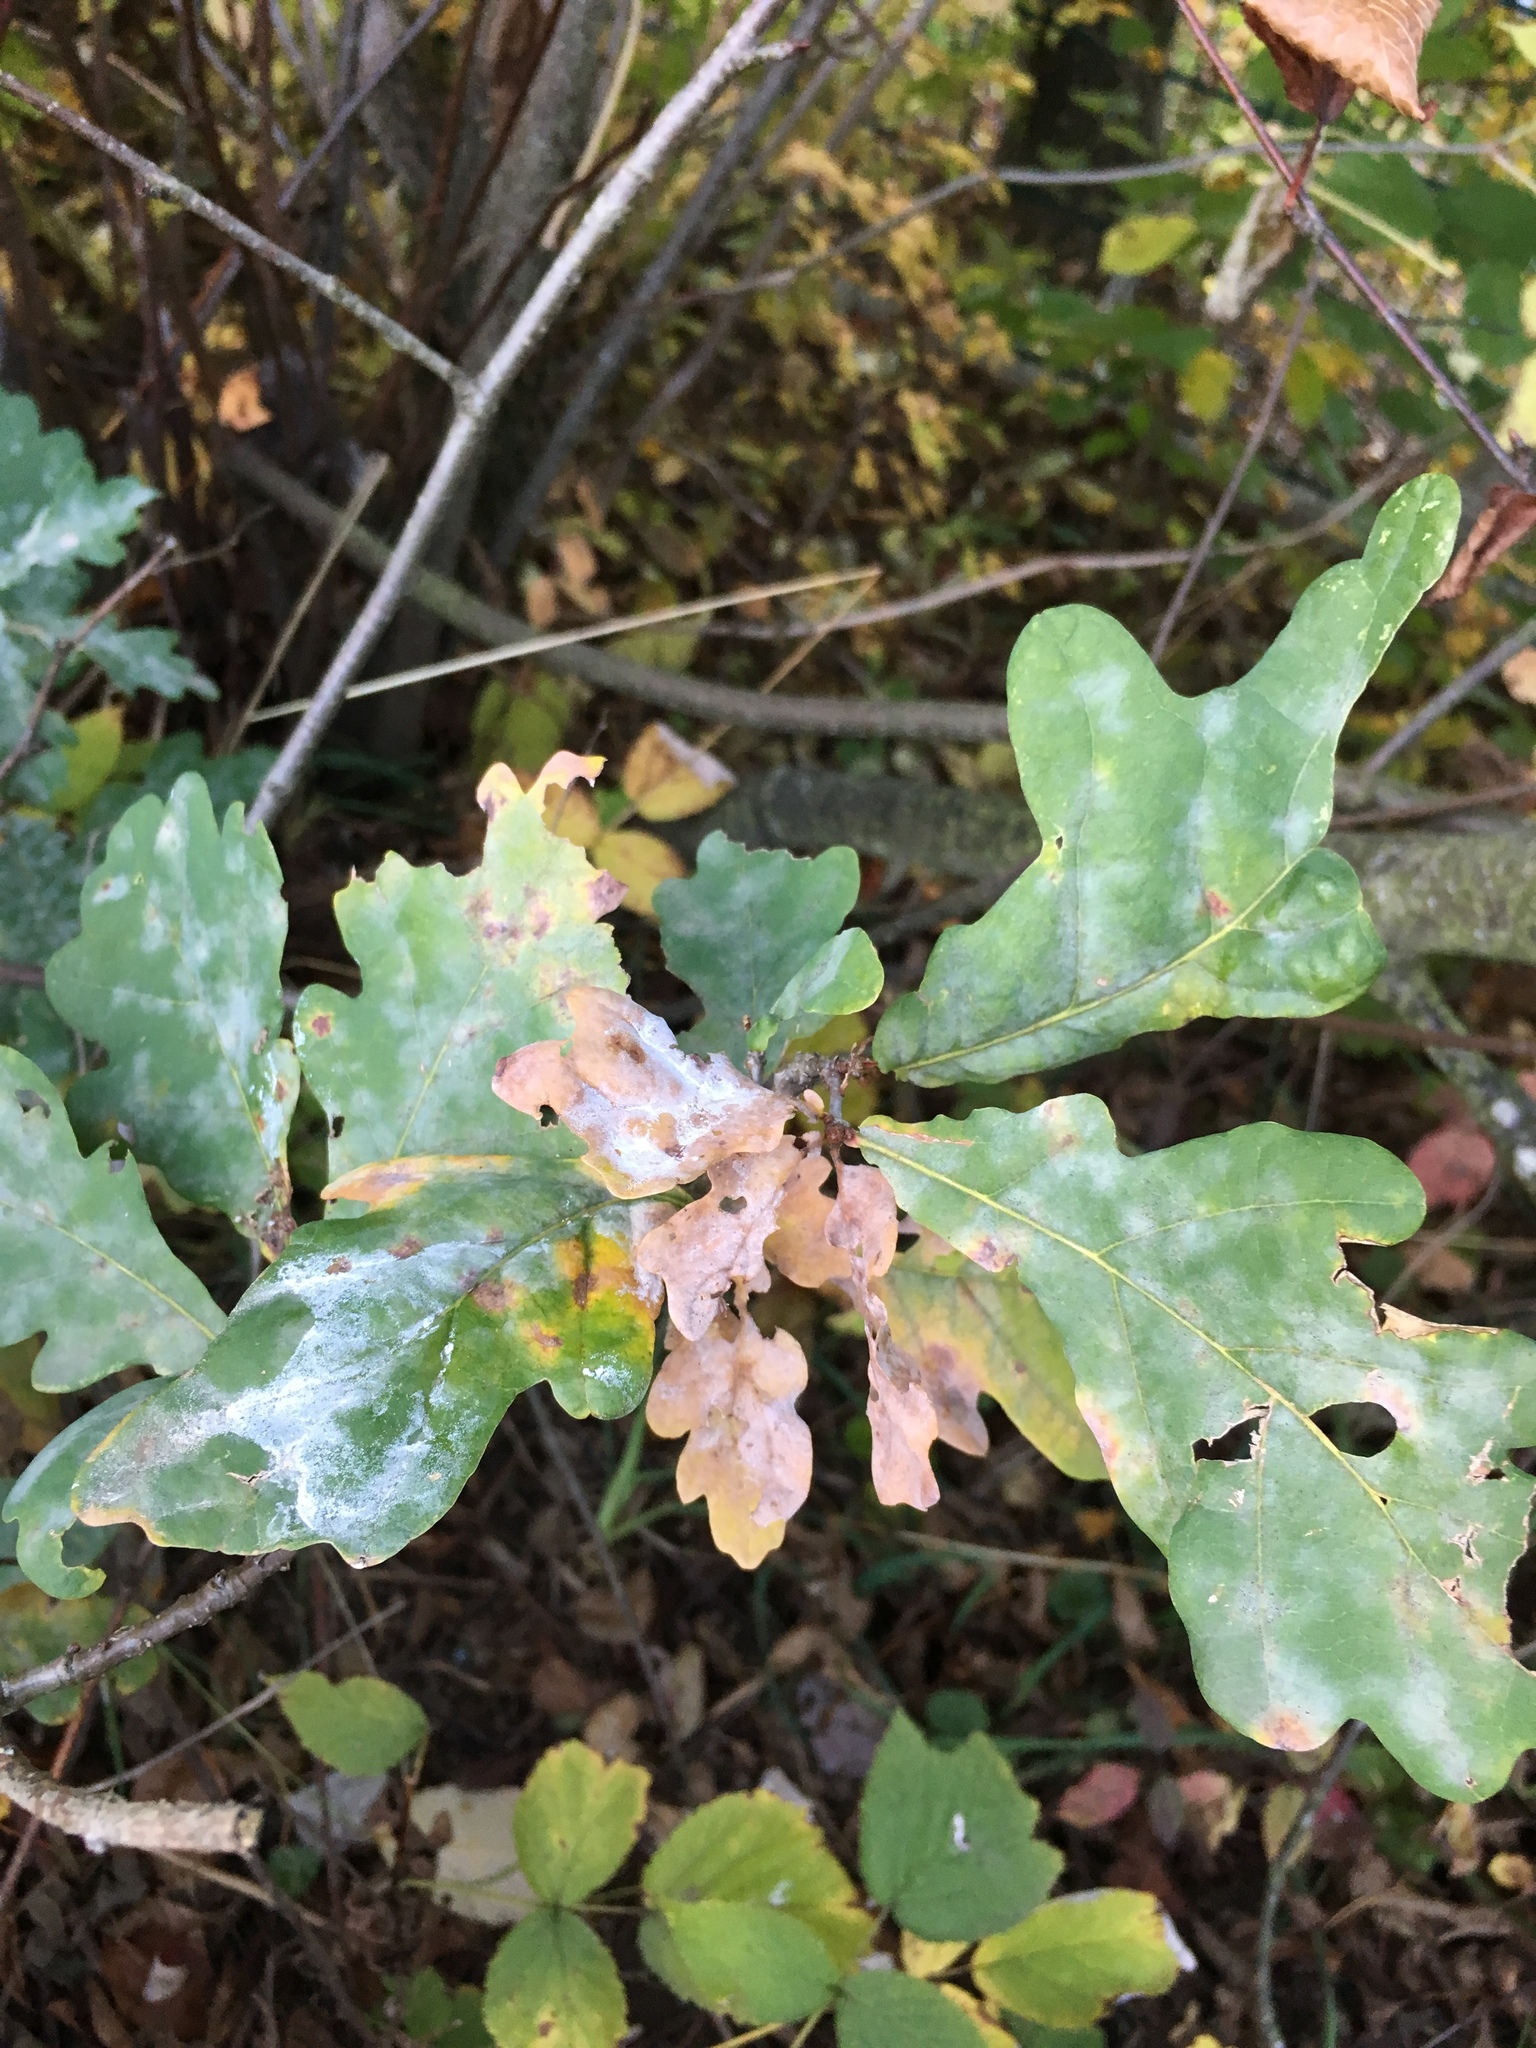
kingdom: Plantae
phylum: Tracheophyta
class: Magnoliopsida
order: Fagales
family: Fagaceae
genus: Quercus
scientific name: Quercus robur
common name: Pedunculate oak
